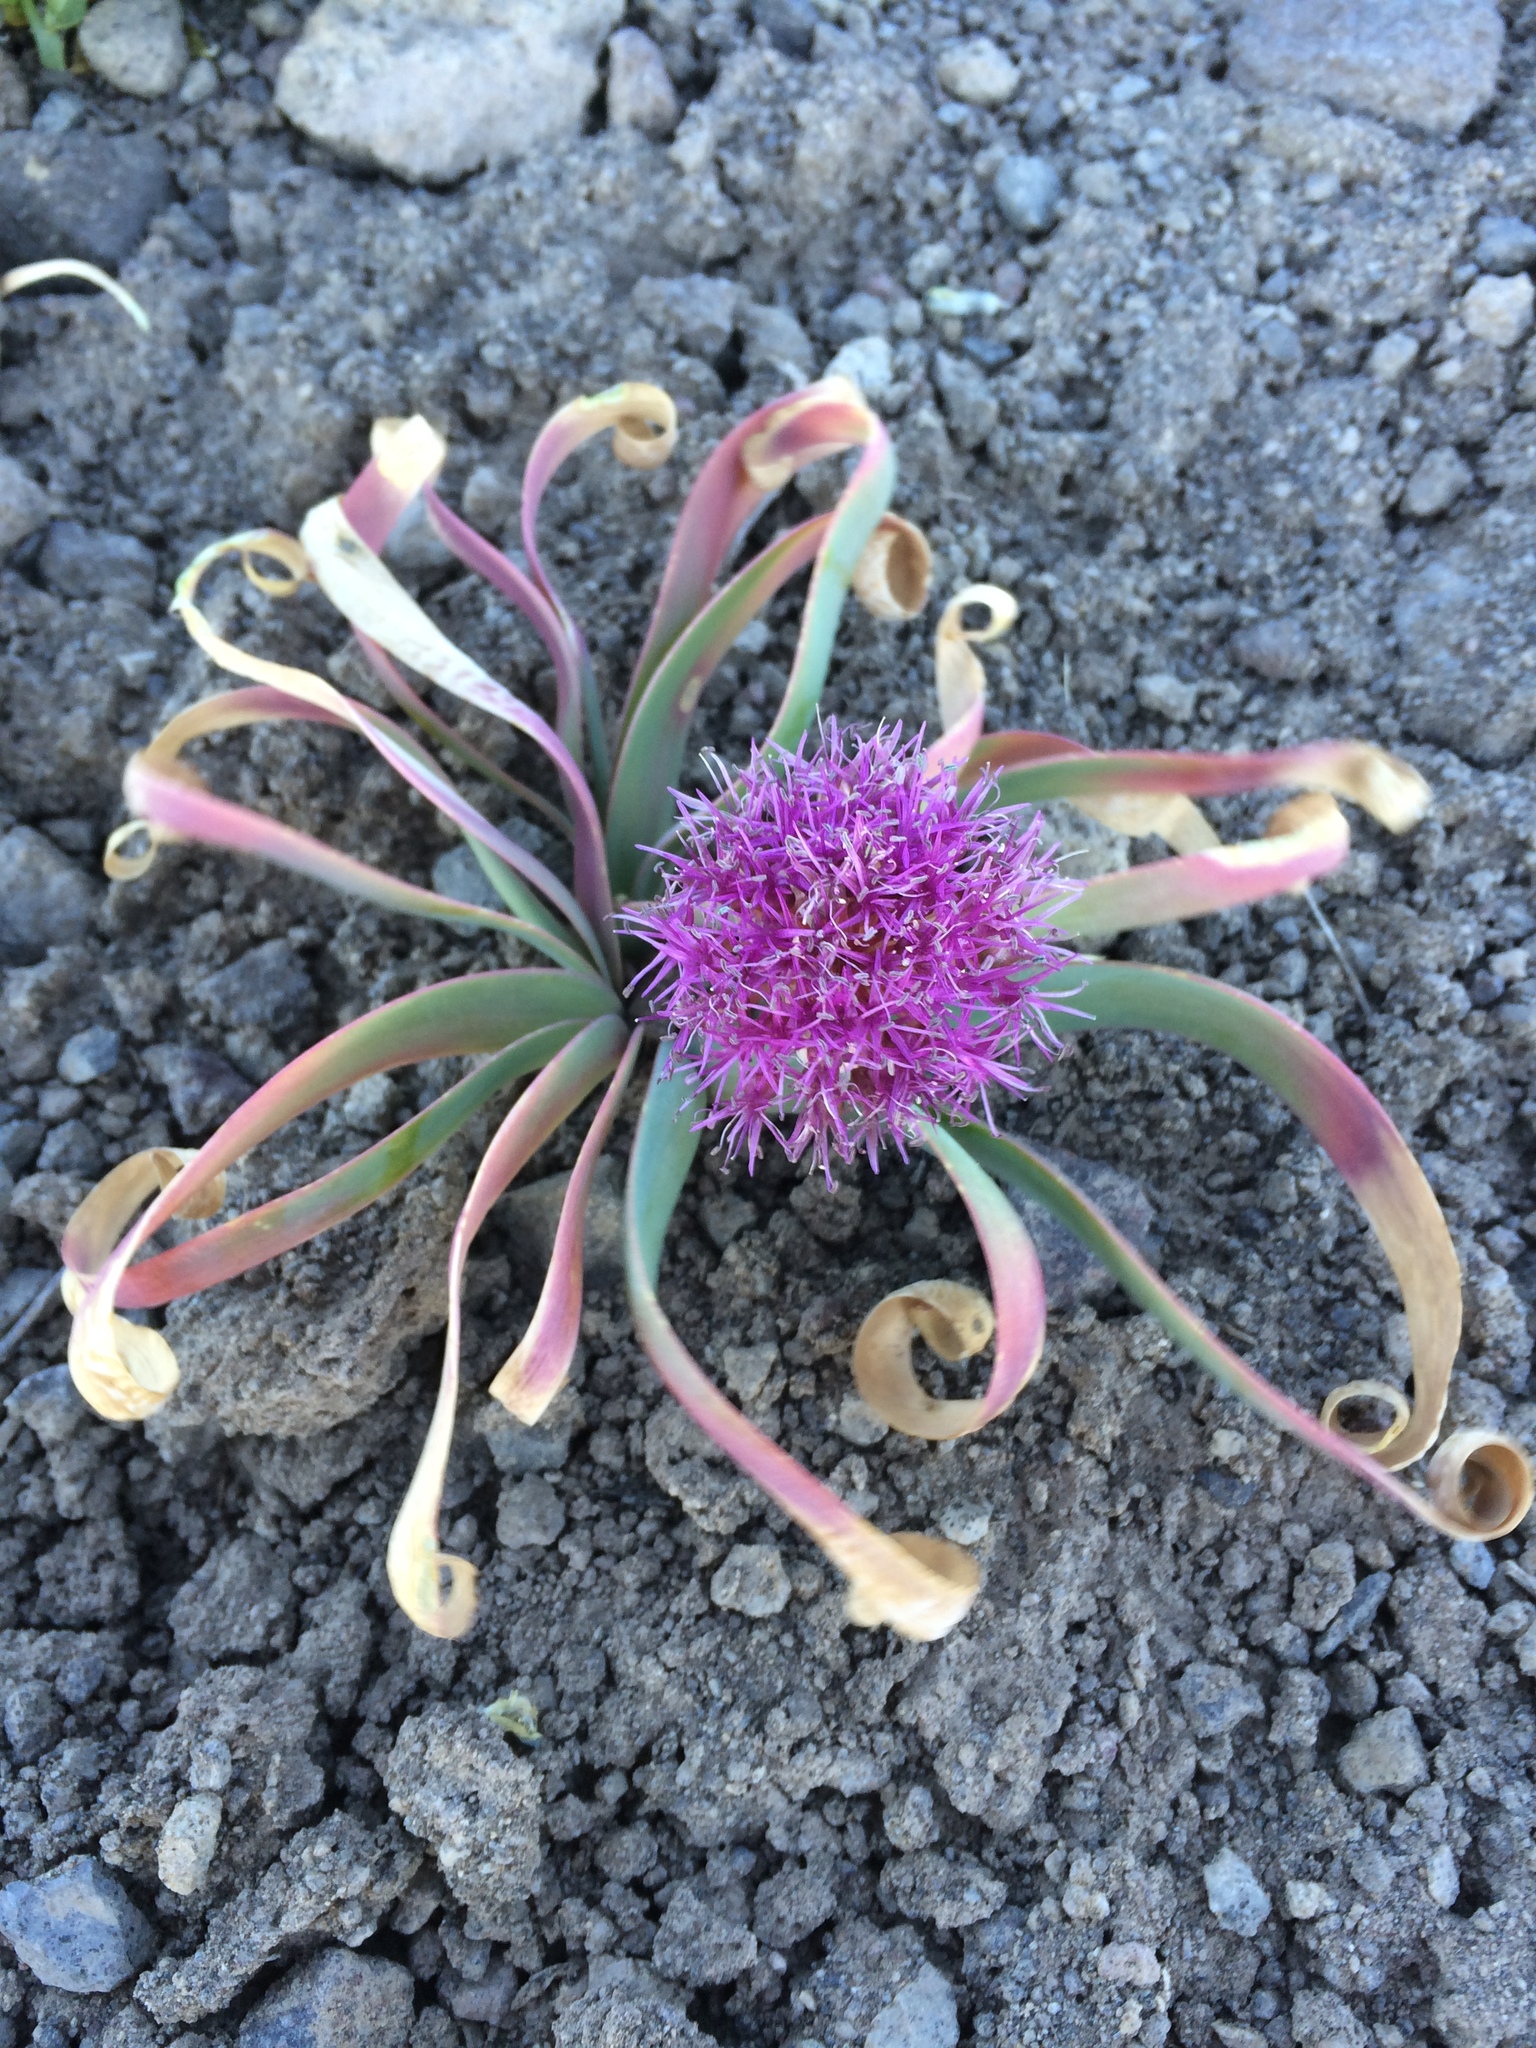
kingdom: Plantae
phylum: Tracheophyta
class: Liliopsida
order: Asparagales
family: Amaryllidaceae
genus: Allium
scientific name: Allium platycaule
